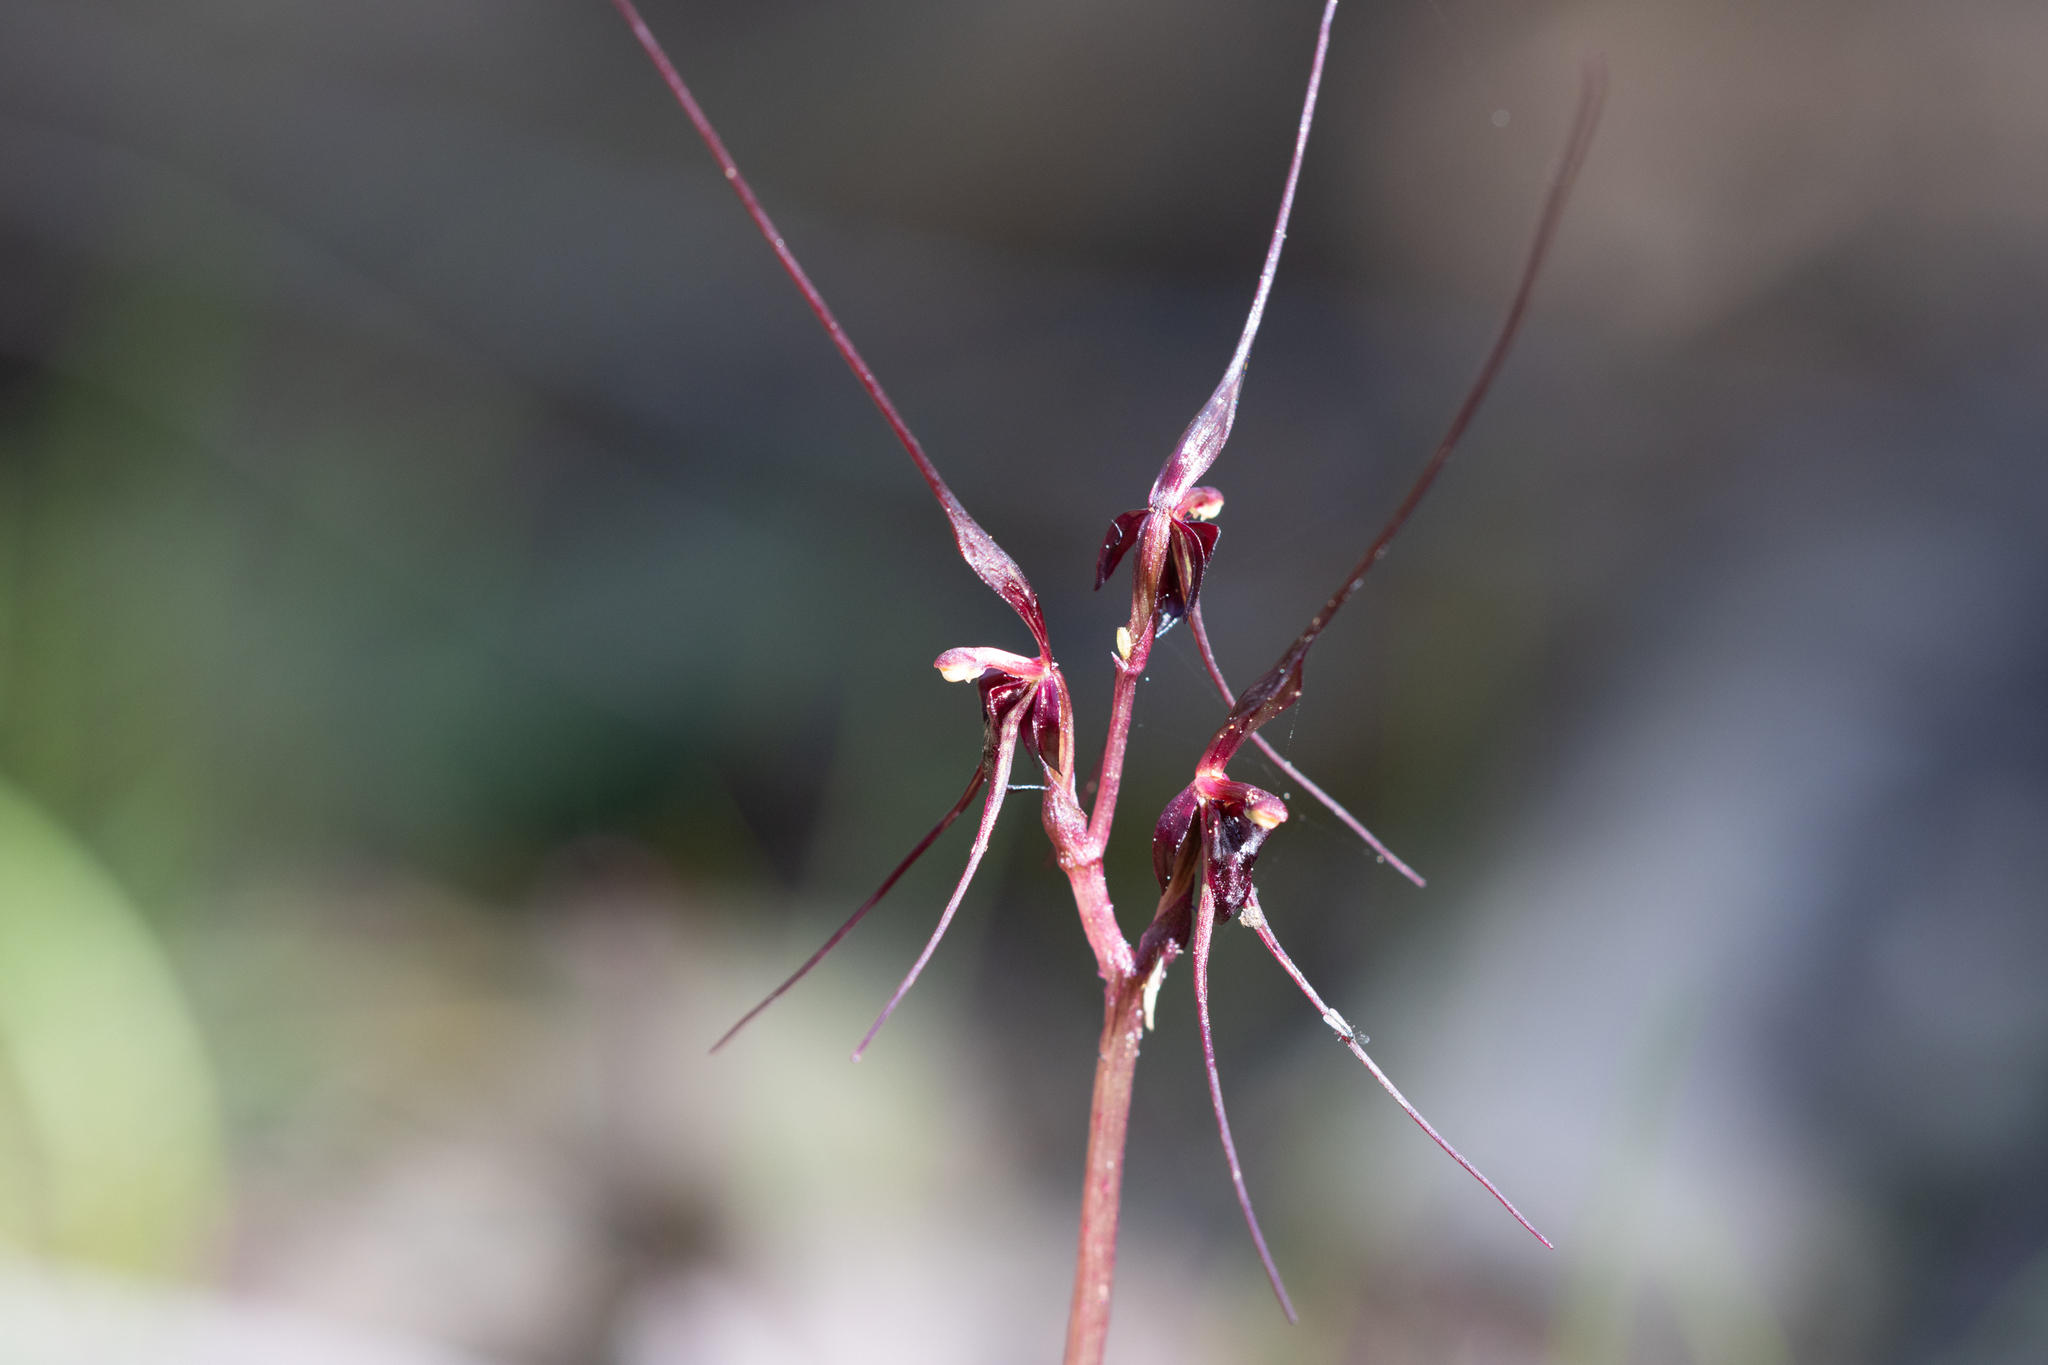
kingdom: Plantae
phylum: Tracheophyta
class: Liliopsida
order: Asparagales
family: Orchidaceae
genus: Acianthus
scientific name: Acianthus caudatus
